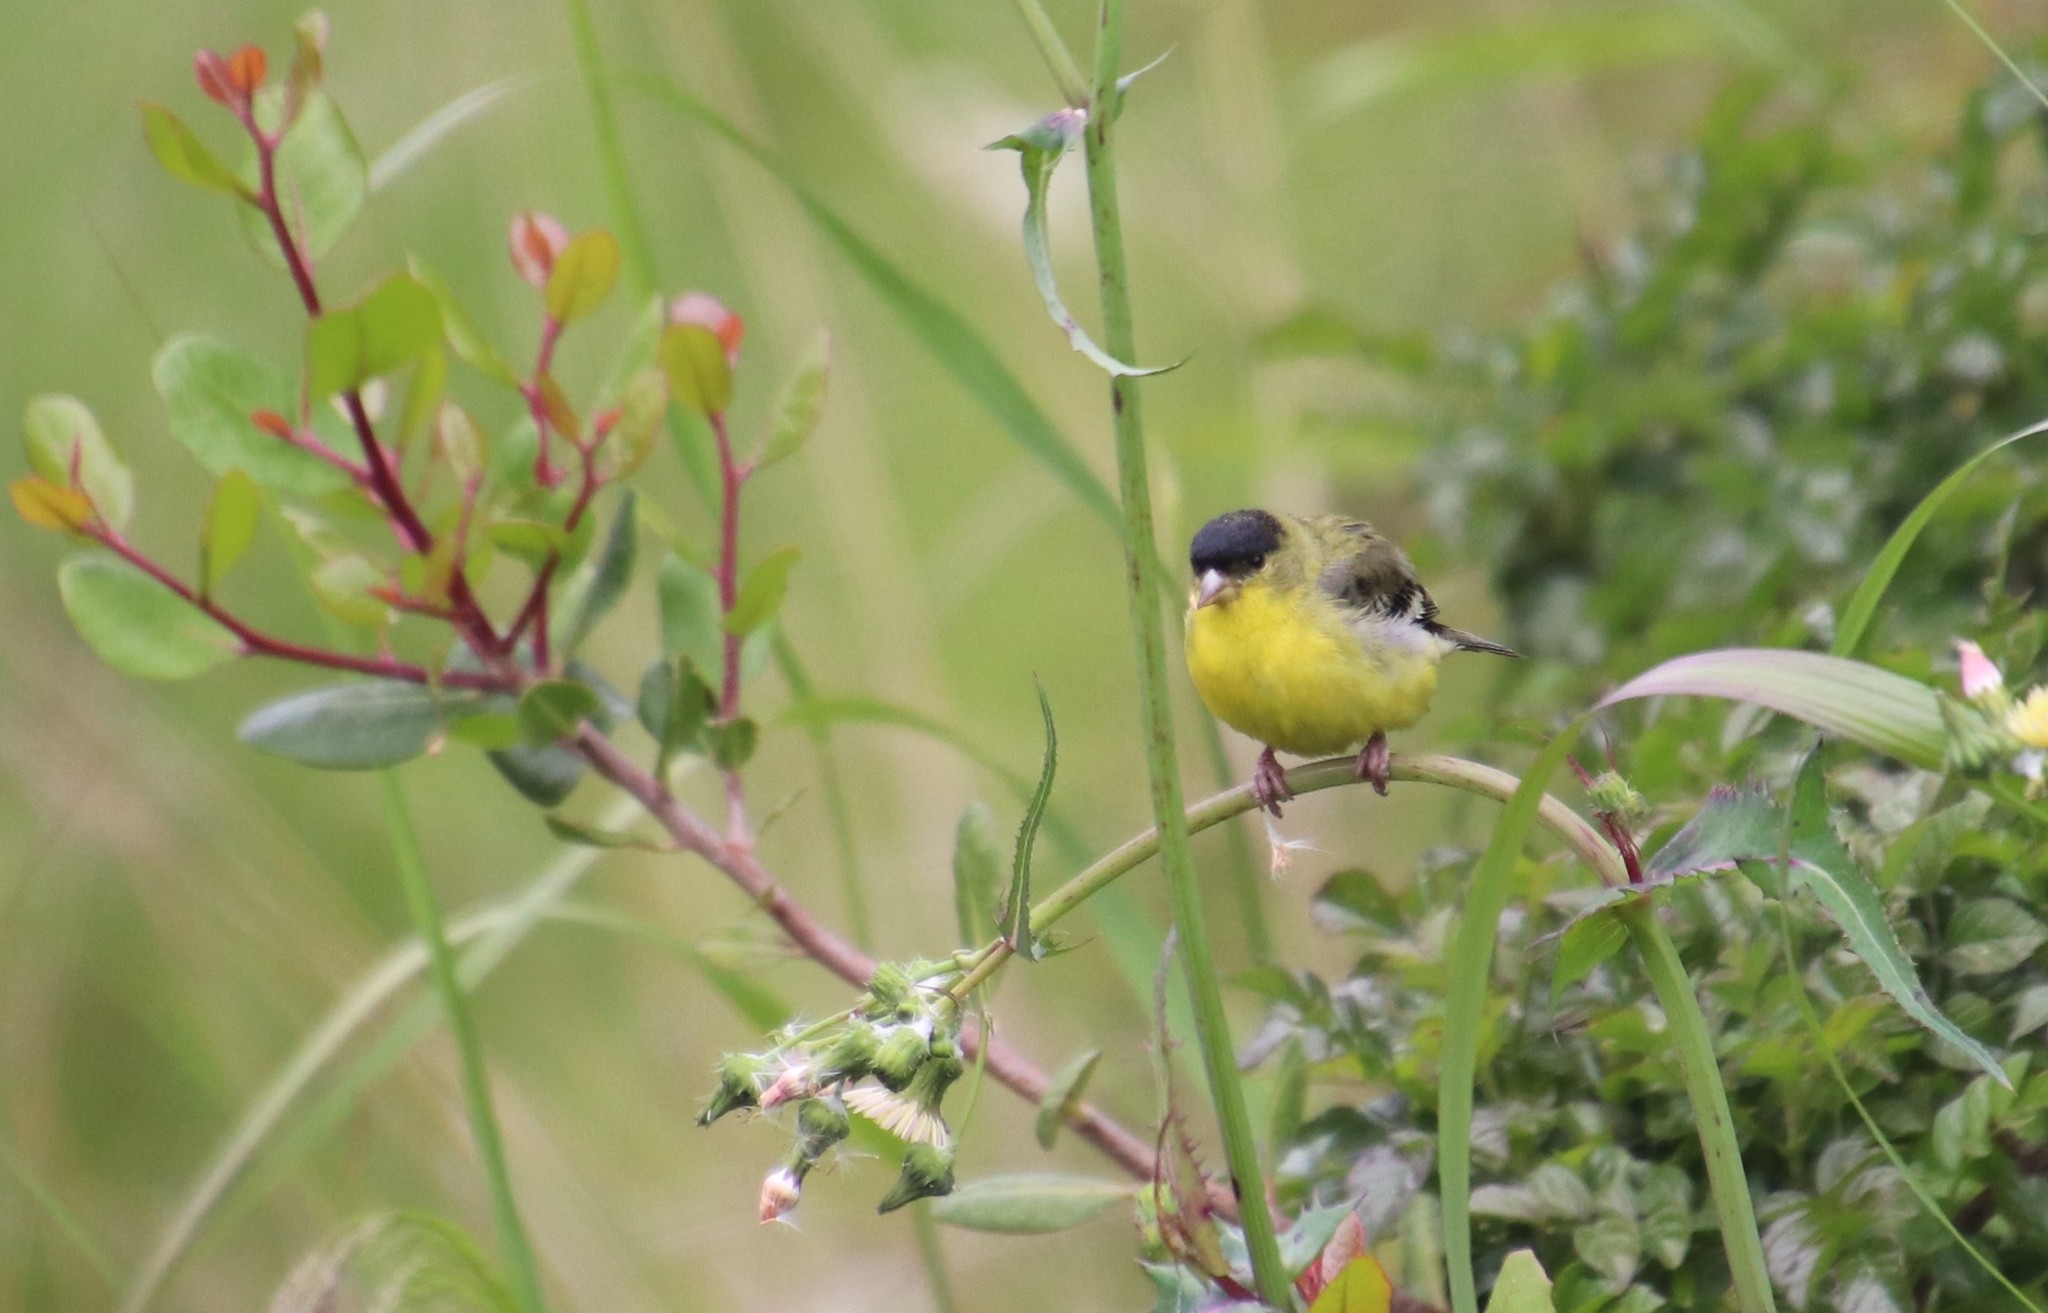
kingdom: Animalia
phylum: Chordata
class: Aves
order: Passeriformes
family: Fringillidae
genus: Spinus
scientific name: Spinus psaltria
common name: Lesser goldfinch
